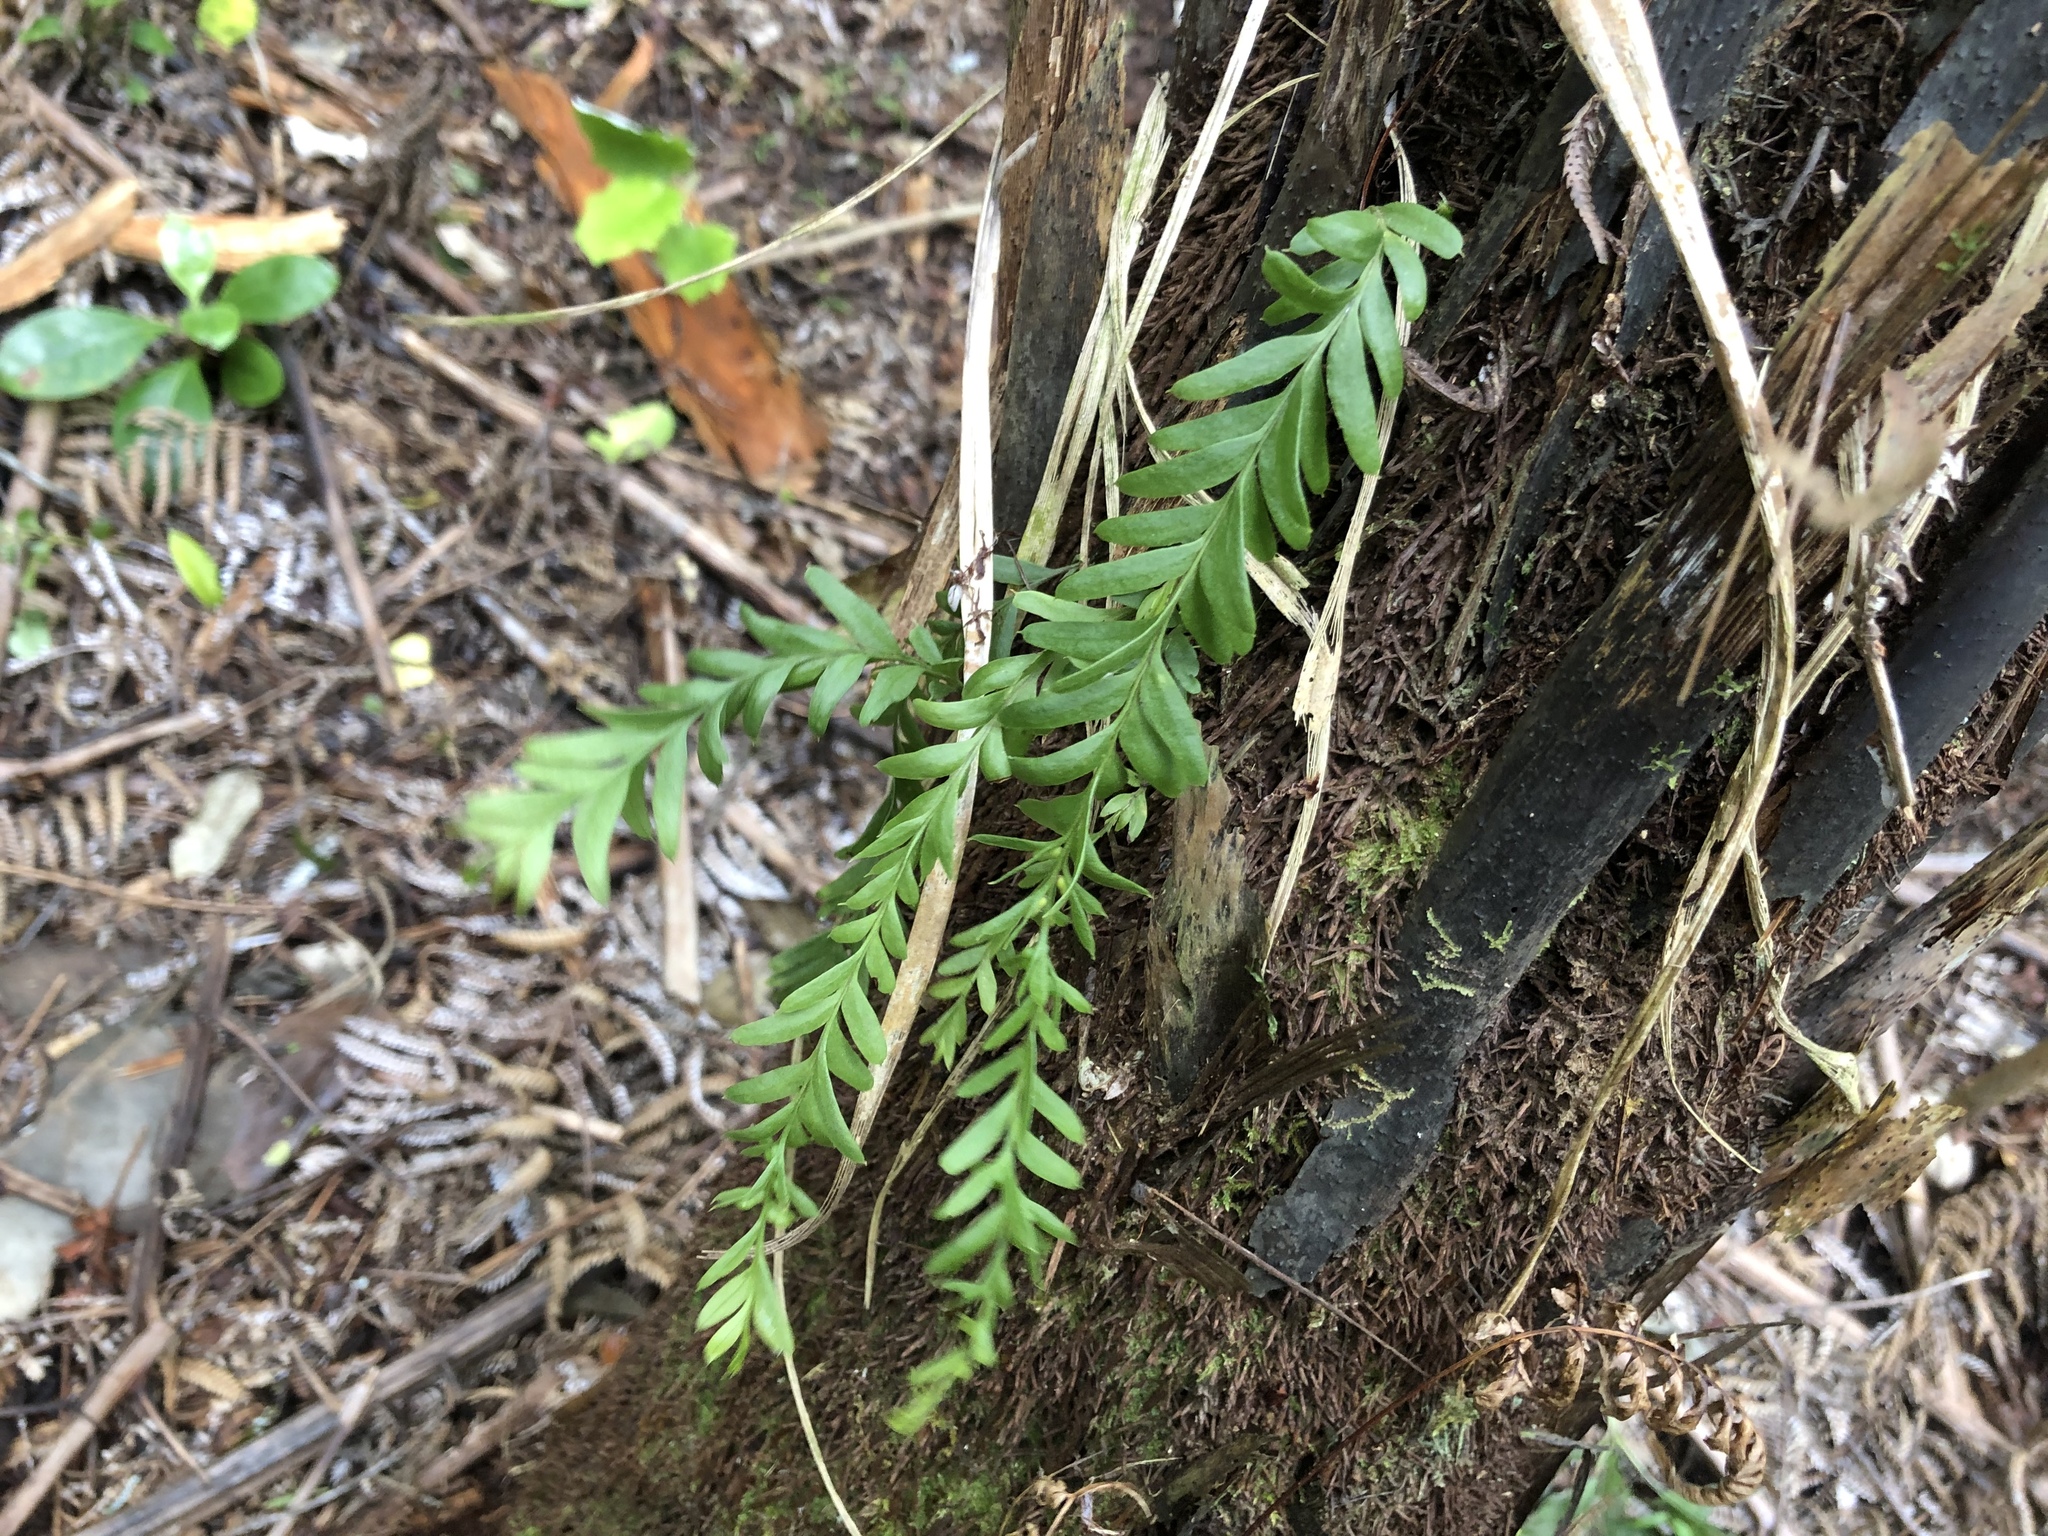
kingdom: Plantae
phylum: Tracheophyta
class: Polypodiopsida
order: Psilotales
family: Psilotaceae
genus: Tmesipteris
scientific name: Tmesipteris elongata
